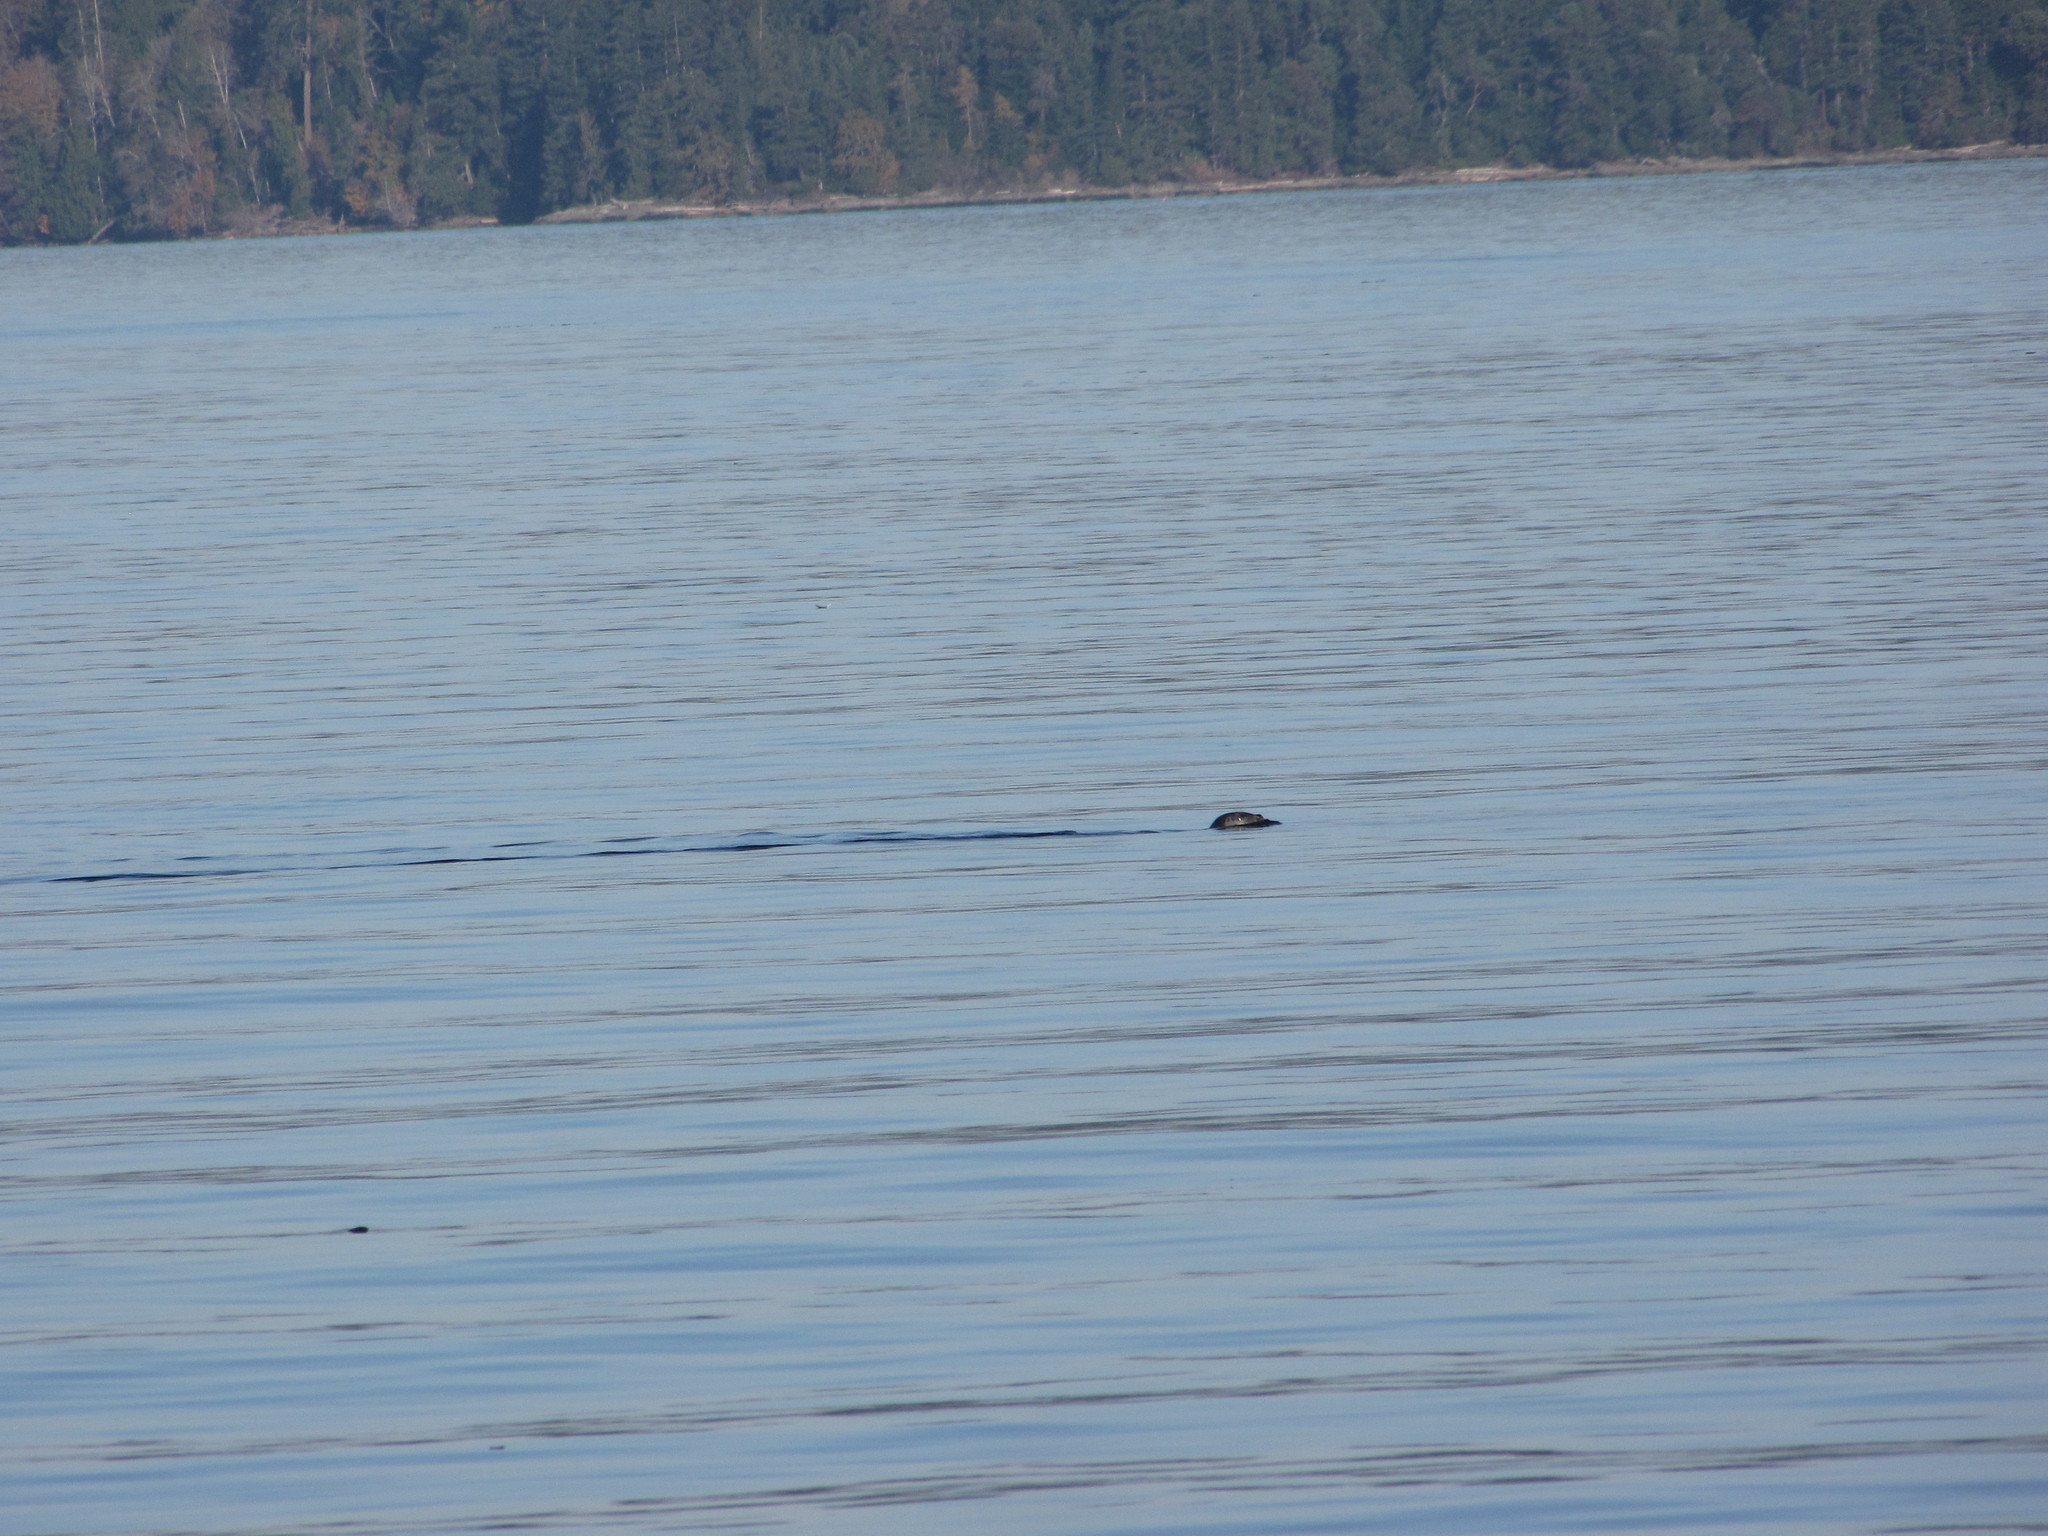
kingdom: Animalia
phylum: Chordata
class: Mammalia
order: Carnivora
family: Phocidae
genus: Phoca
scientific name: Phoca vitulina
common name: Harbor seal
